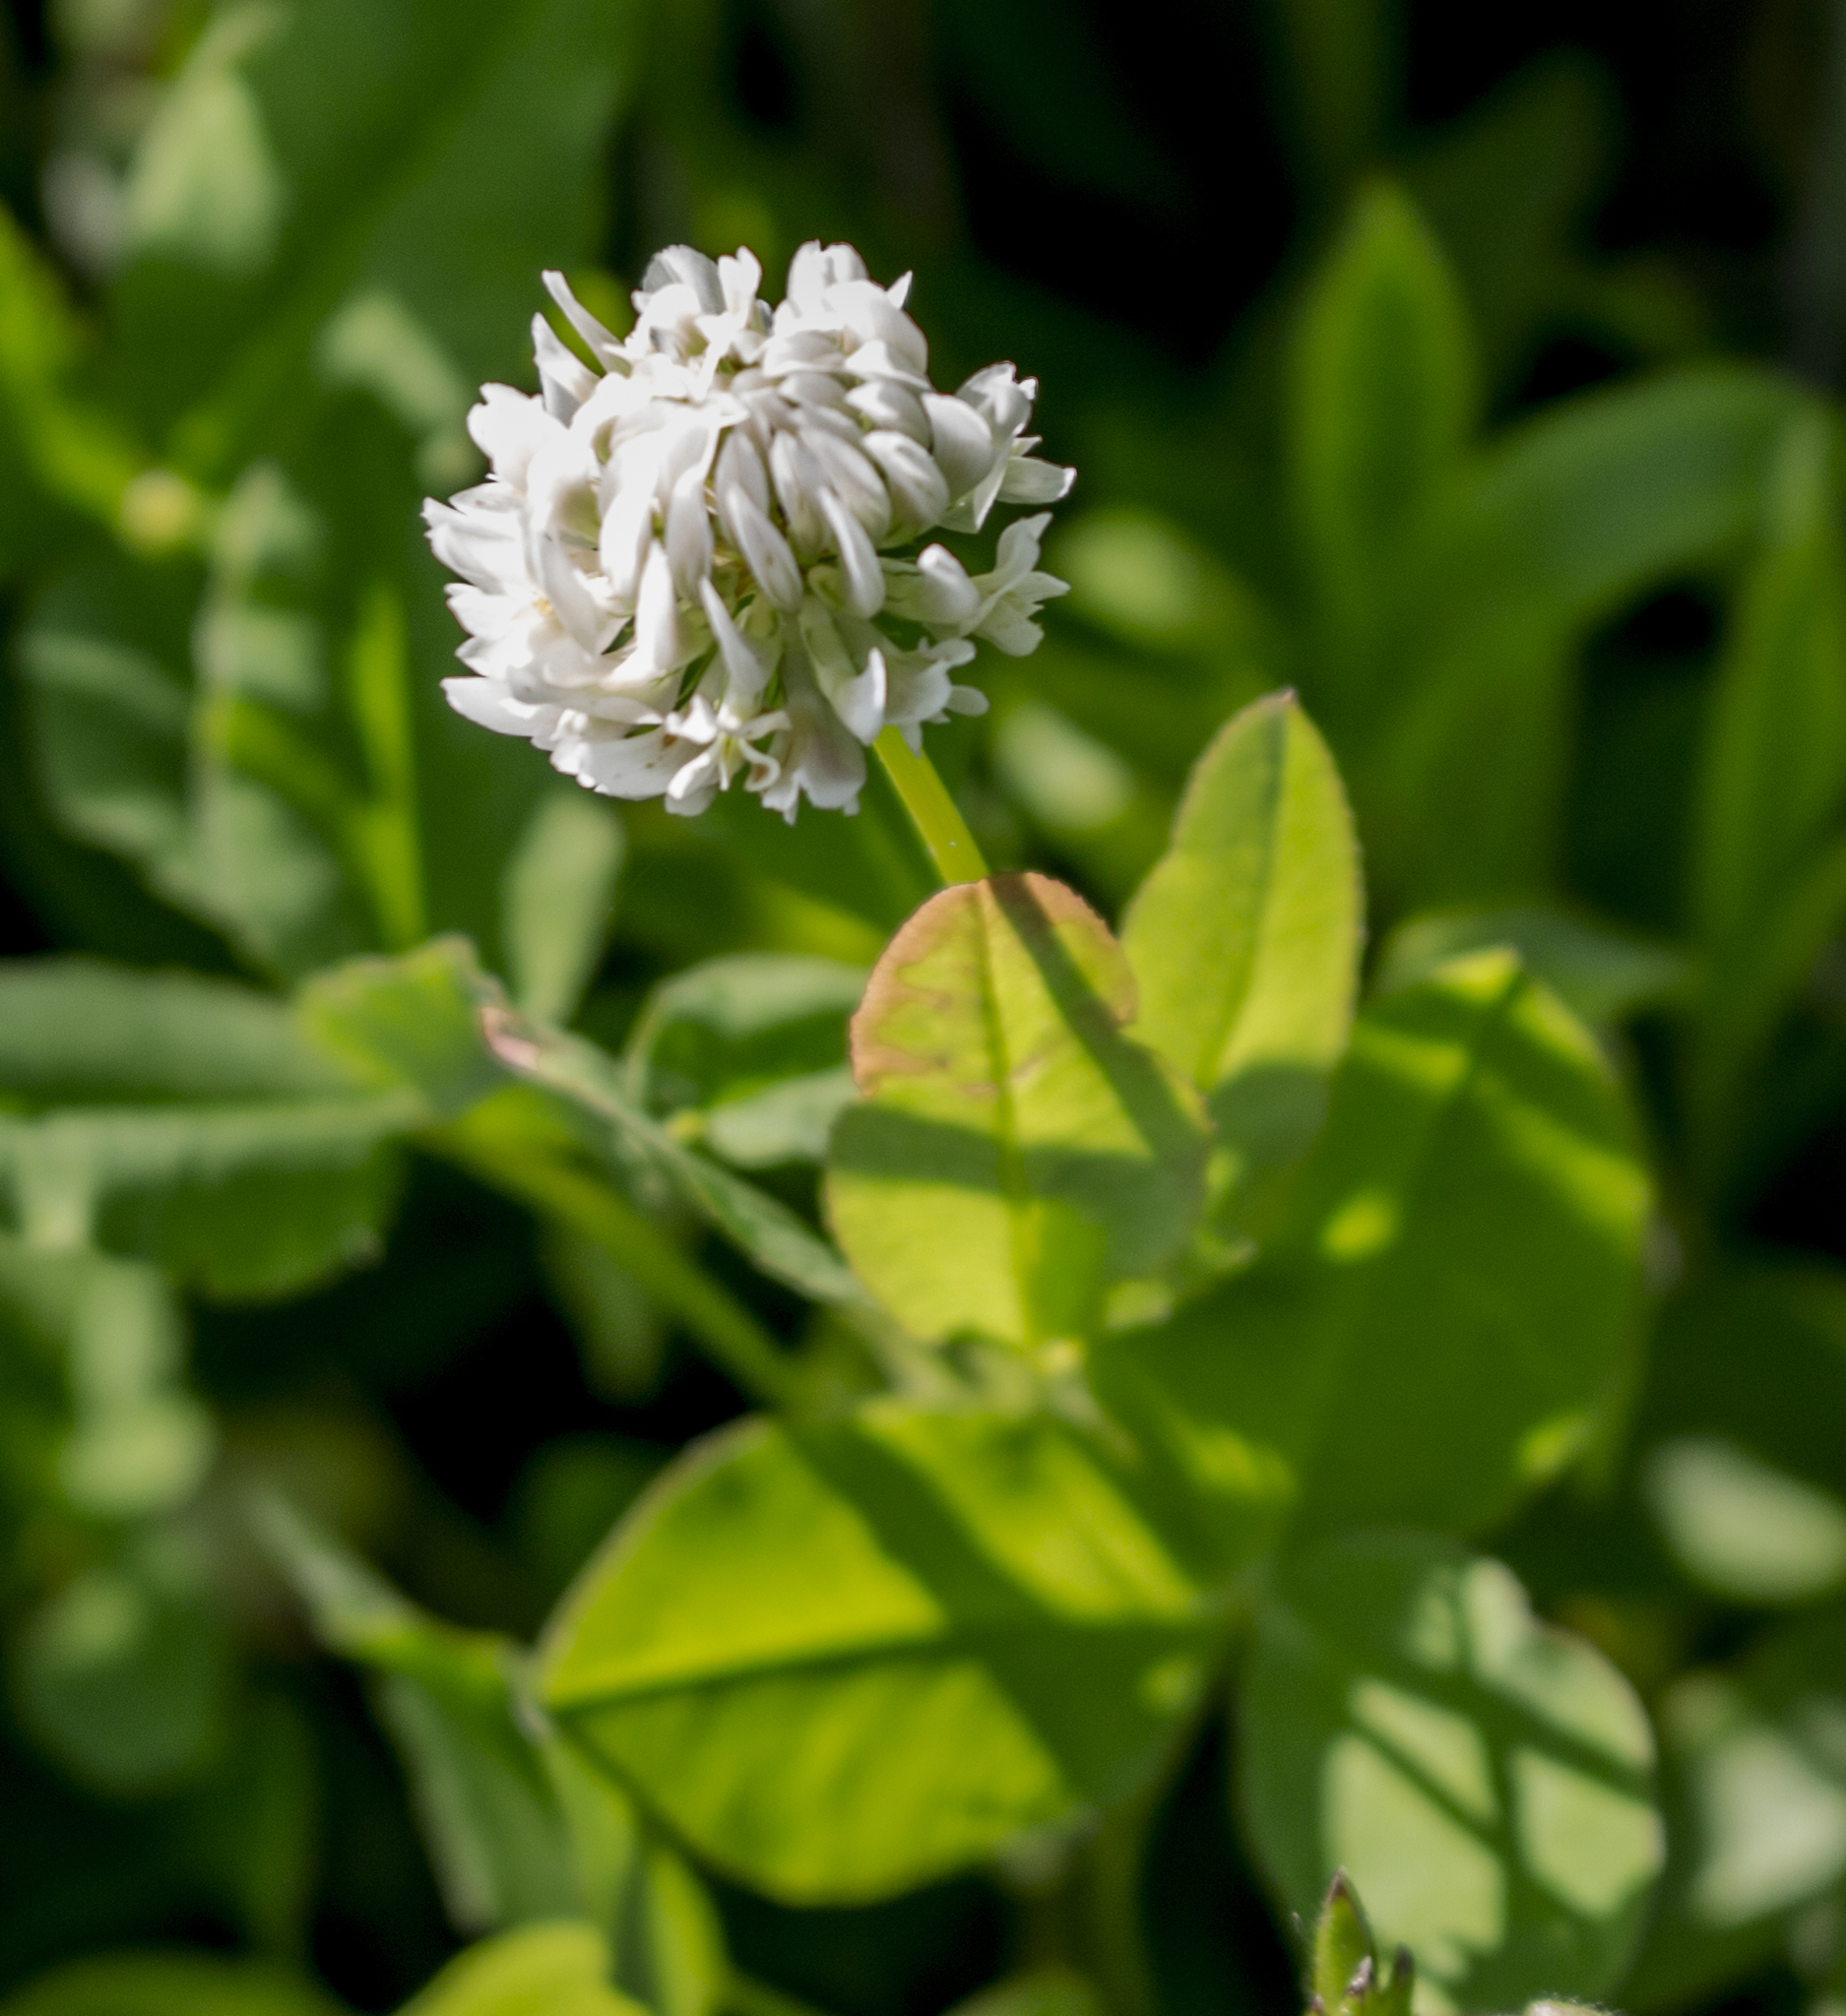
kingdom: Plantae
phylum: Tracheophyta
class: Magnoliopsida
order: Fabales
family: Fabaceae
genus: Trifolium
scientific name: Trifolium repens
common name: White clover
